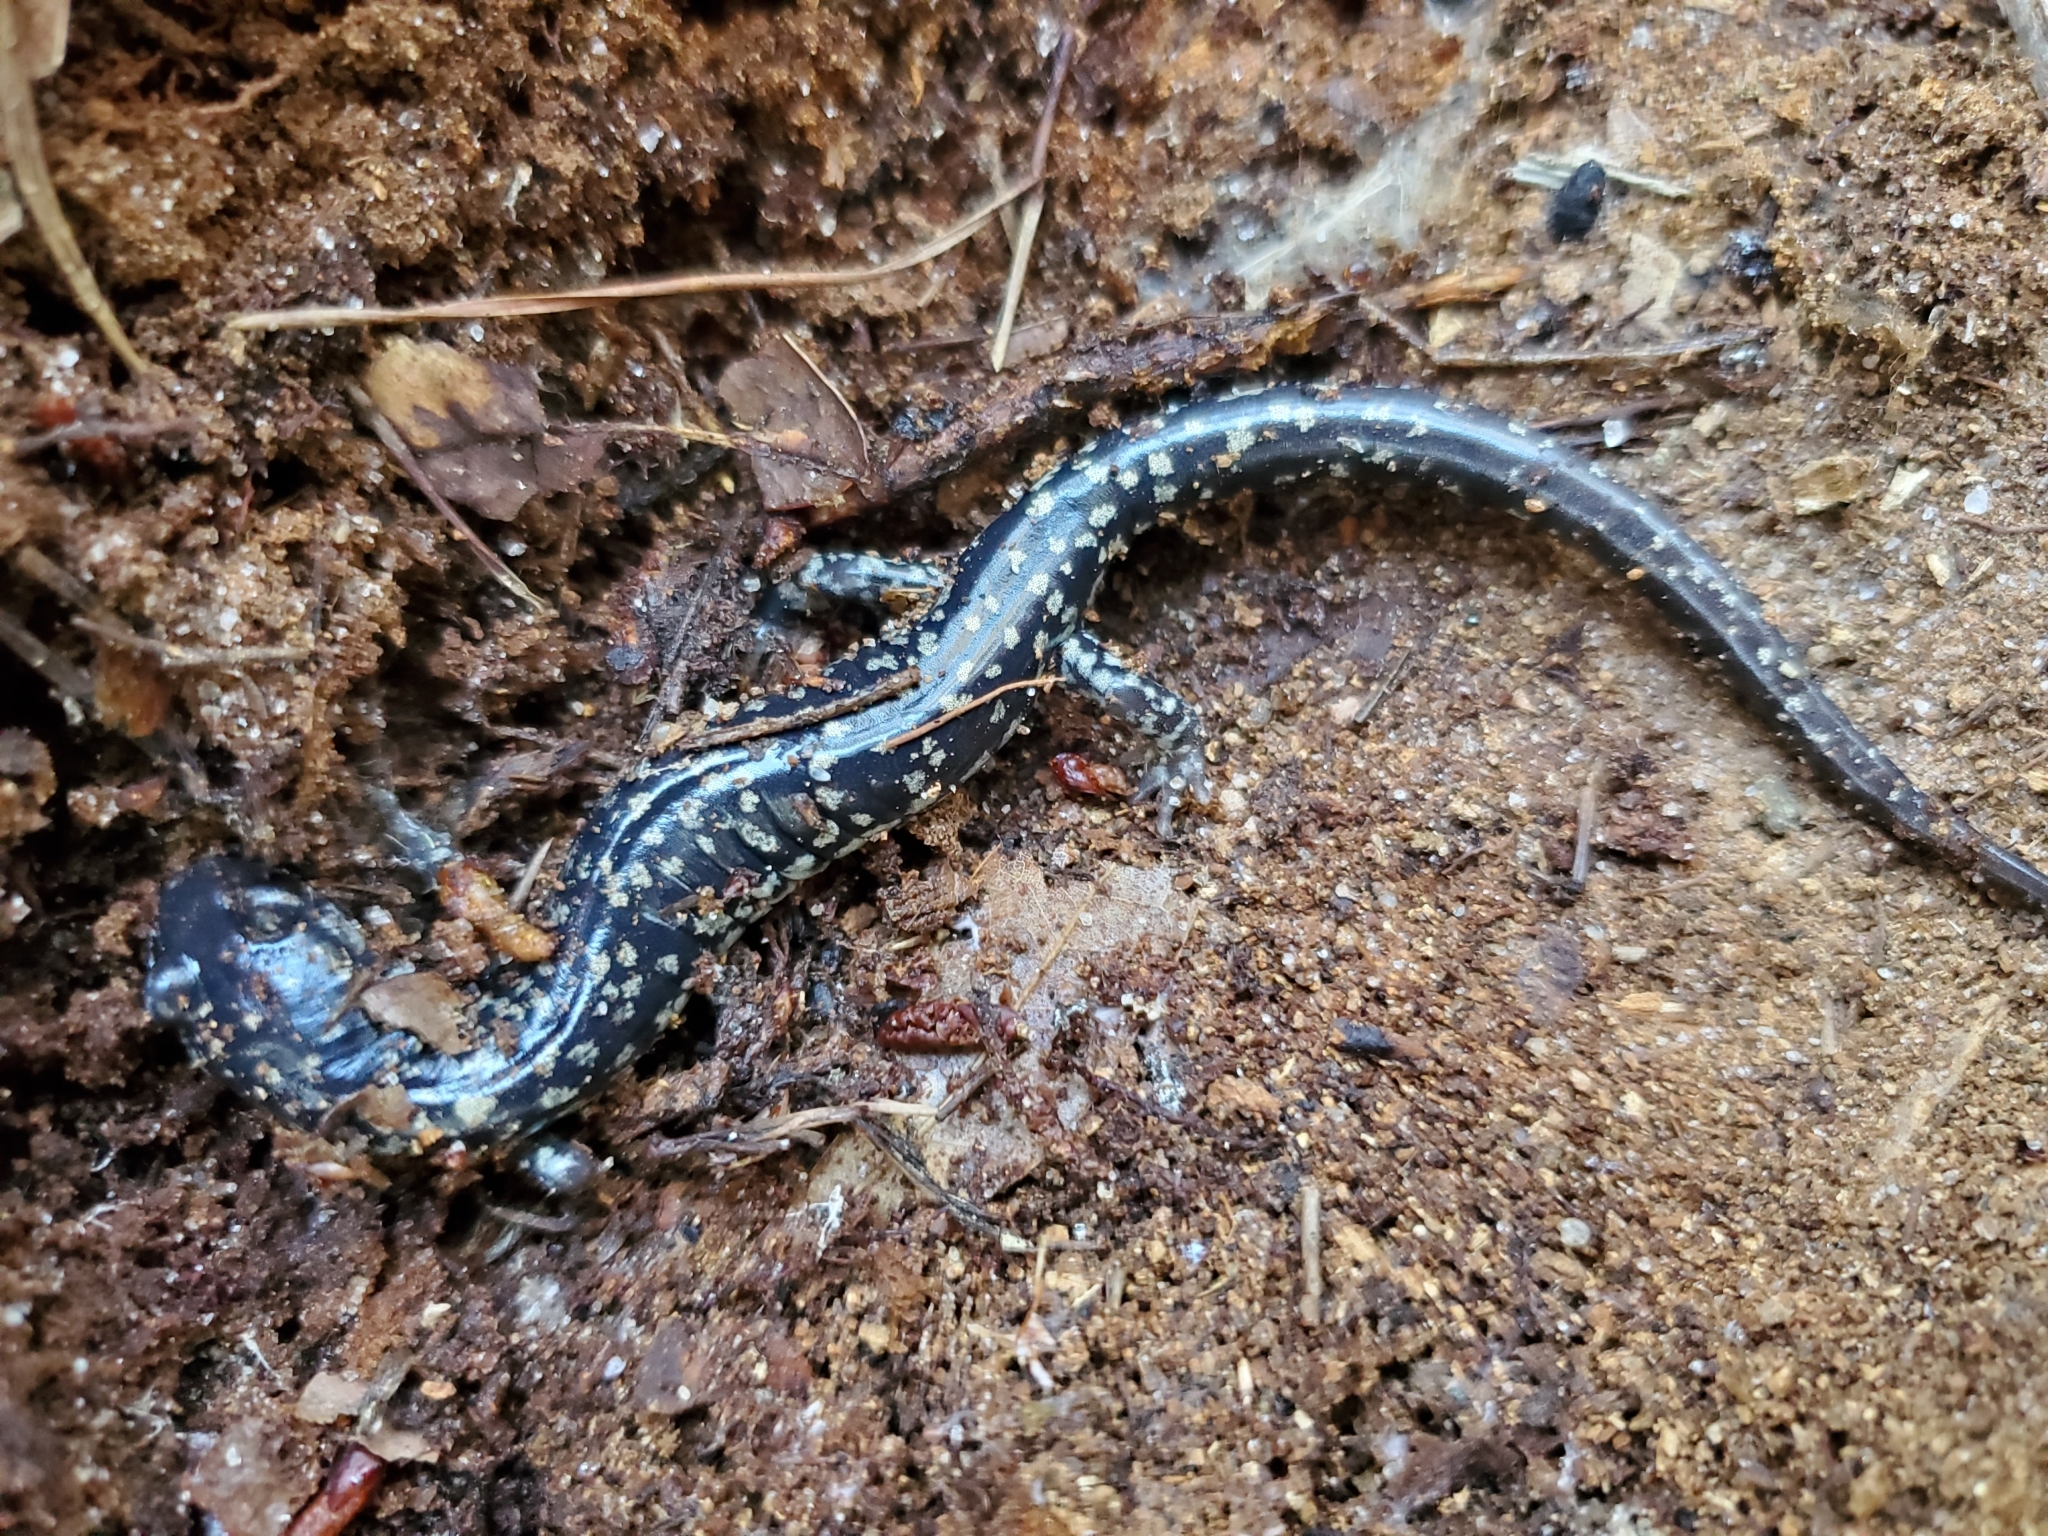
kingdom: Animalia
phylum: Chordata
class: Amphibia
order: Caudata
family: Plethodontidae
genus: Plethodon
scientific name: Plethodon grobmani
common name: Southeastern slimy salamander
